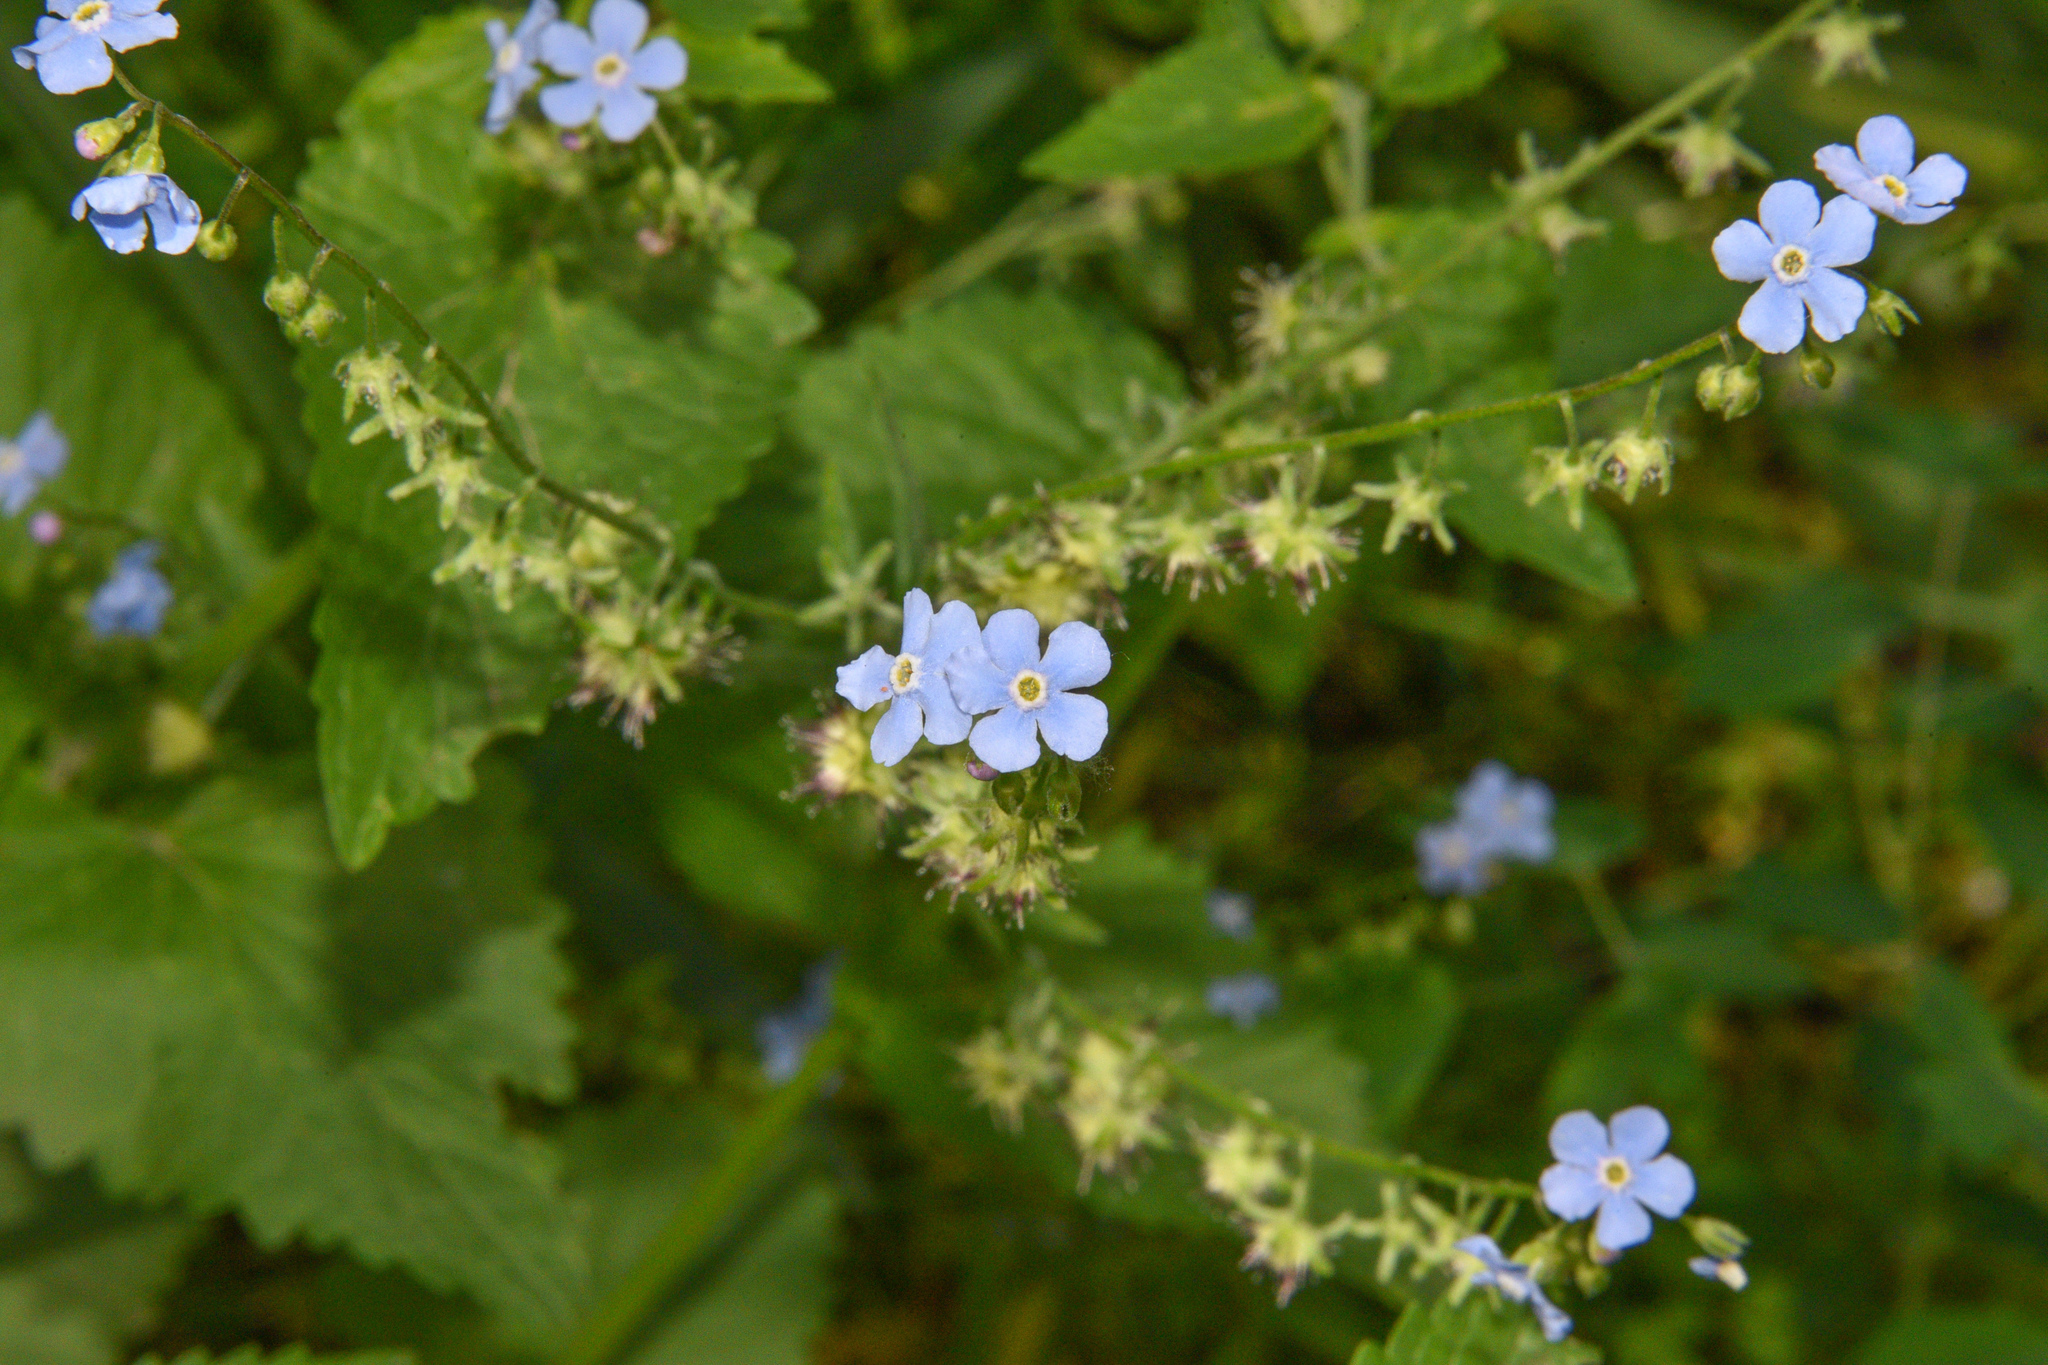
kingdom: Plantae
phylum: Tracheophyta
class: Magnoliopsida
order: Boraginales
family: Boraginaceae
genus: Hackelia
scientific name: Hackelia patens
